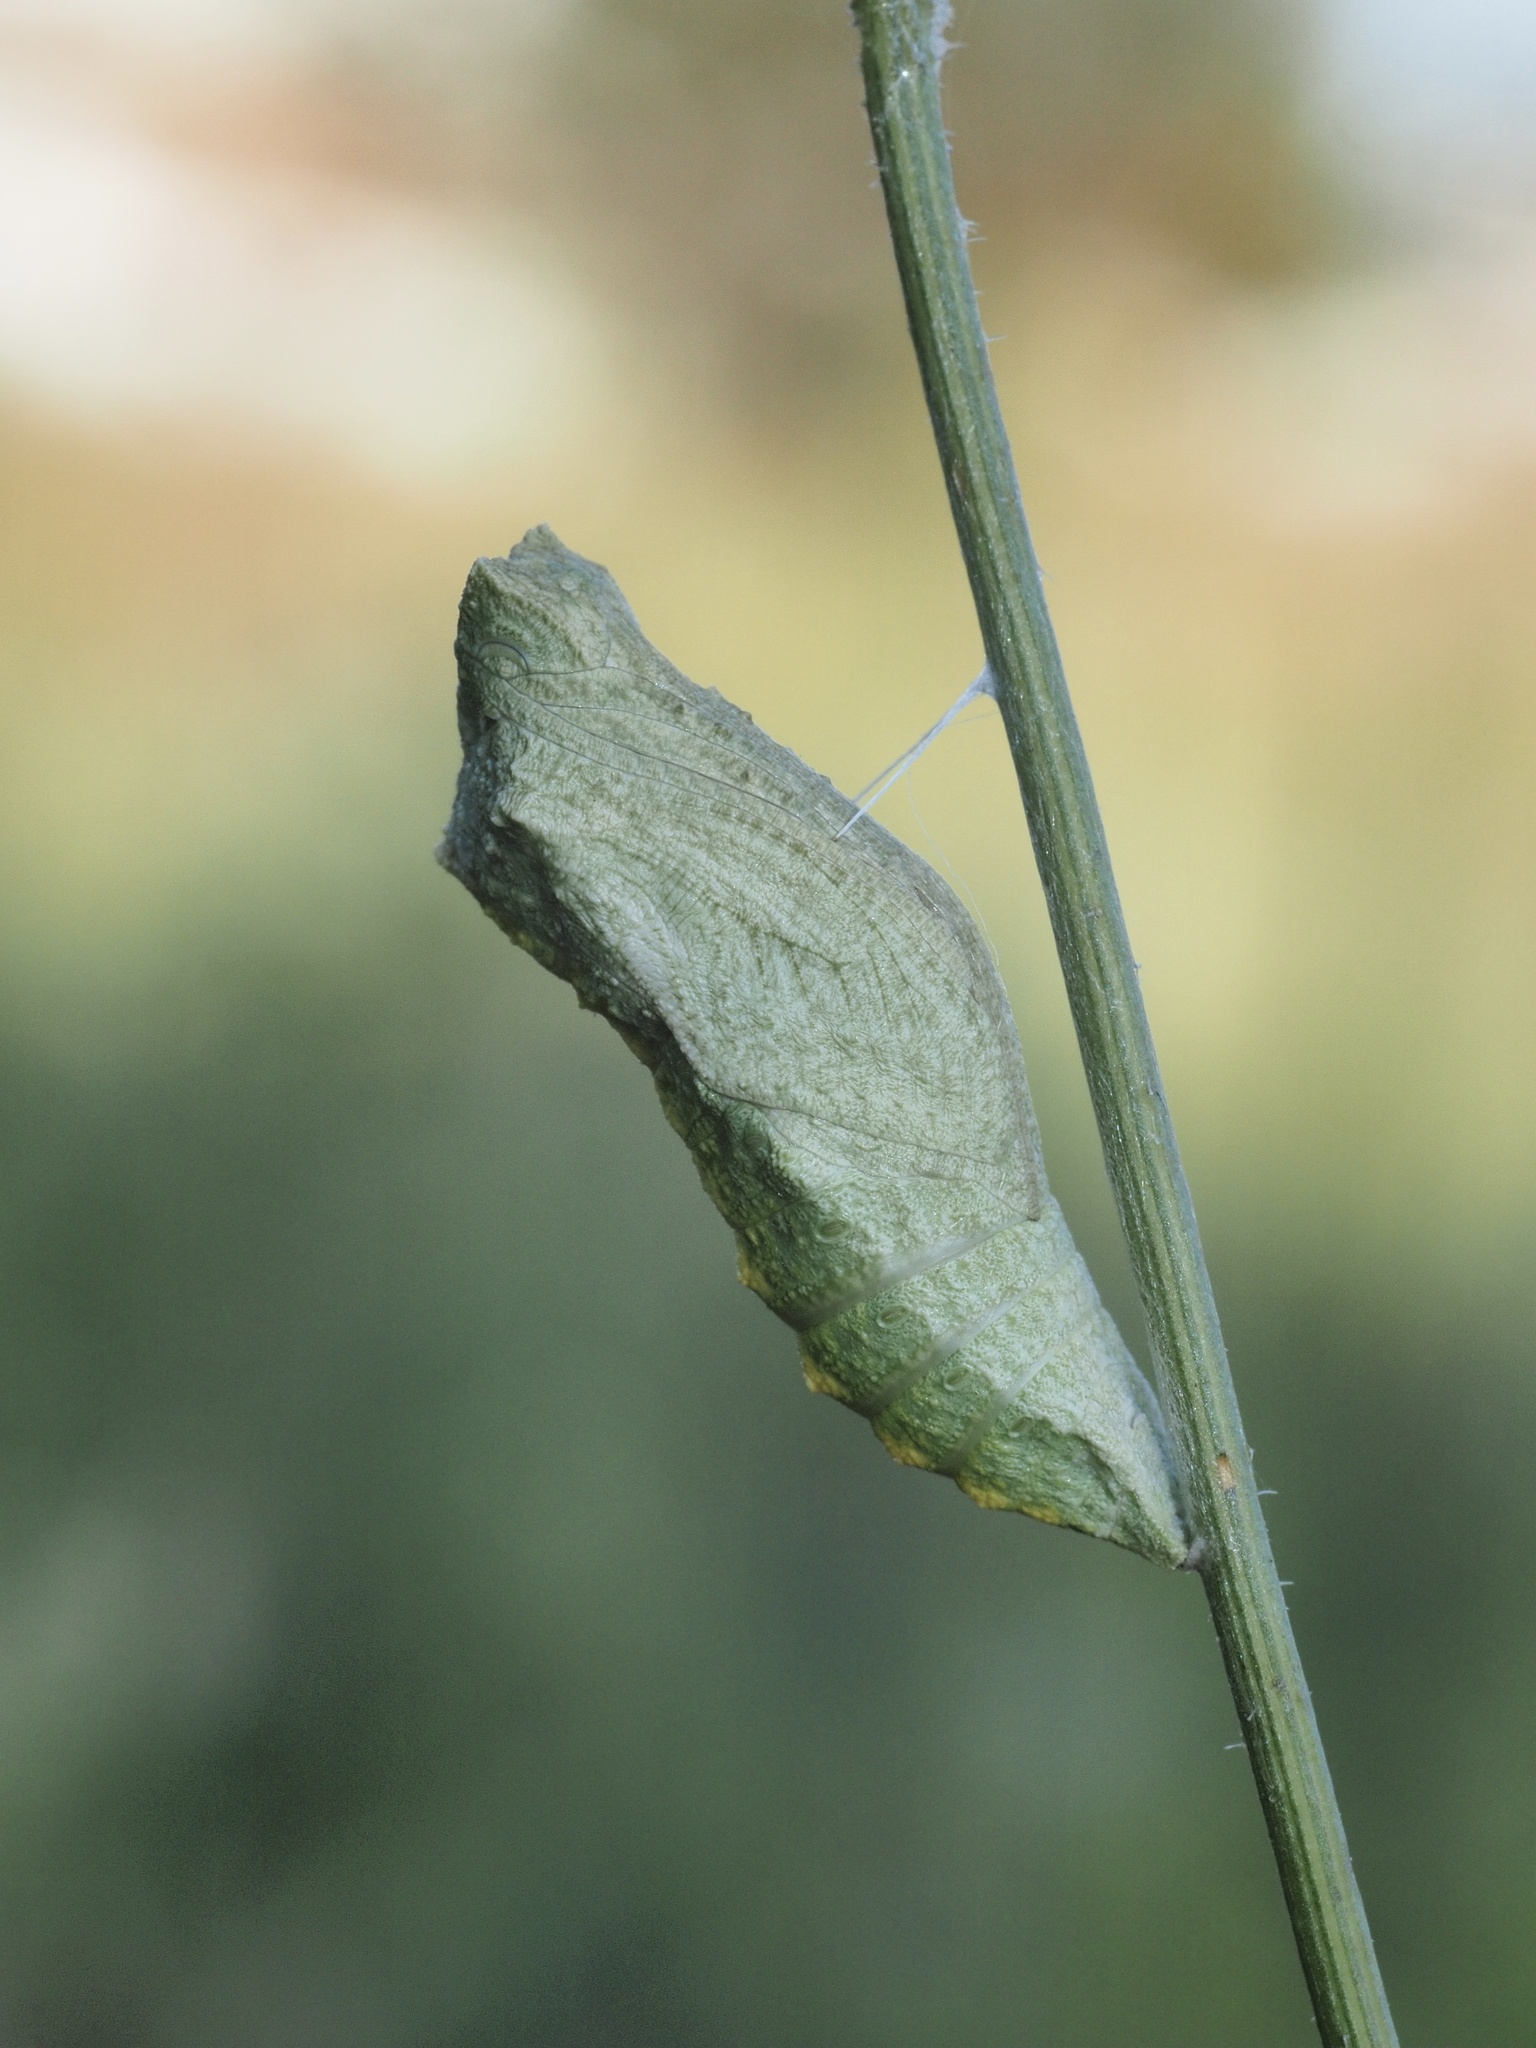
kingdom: Animalia
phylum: Arthropoda
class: Insecta
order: Lepidoptera
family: Papilionidae
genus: Papilio
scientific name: Papilio machaon
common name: Swallowtail
